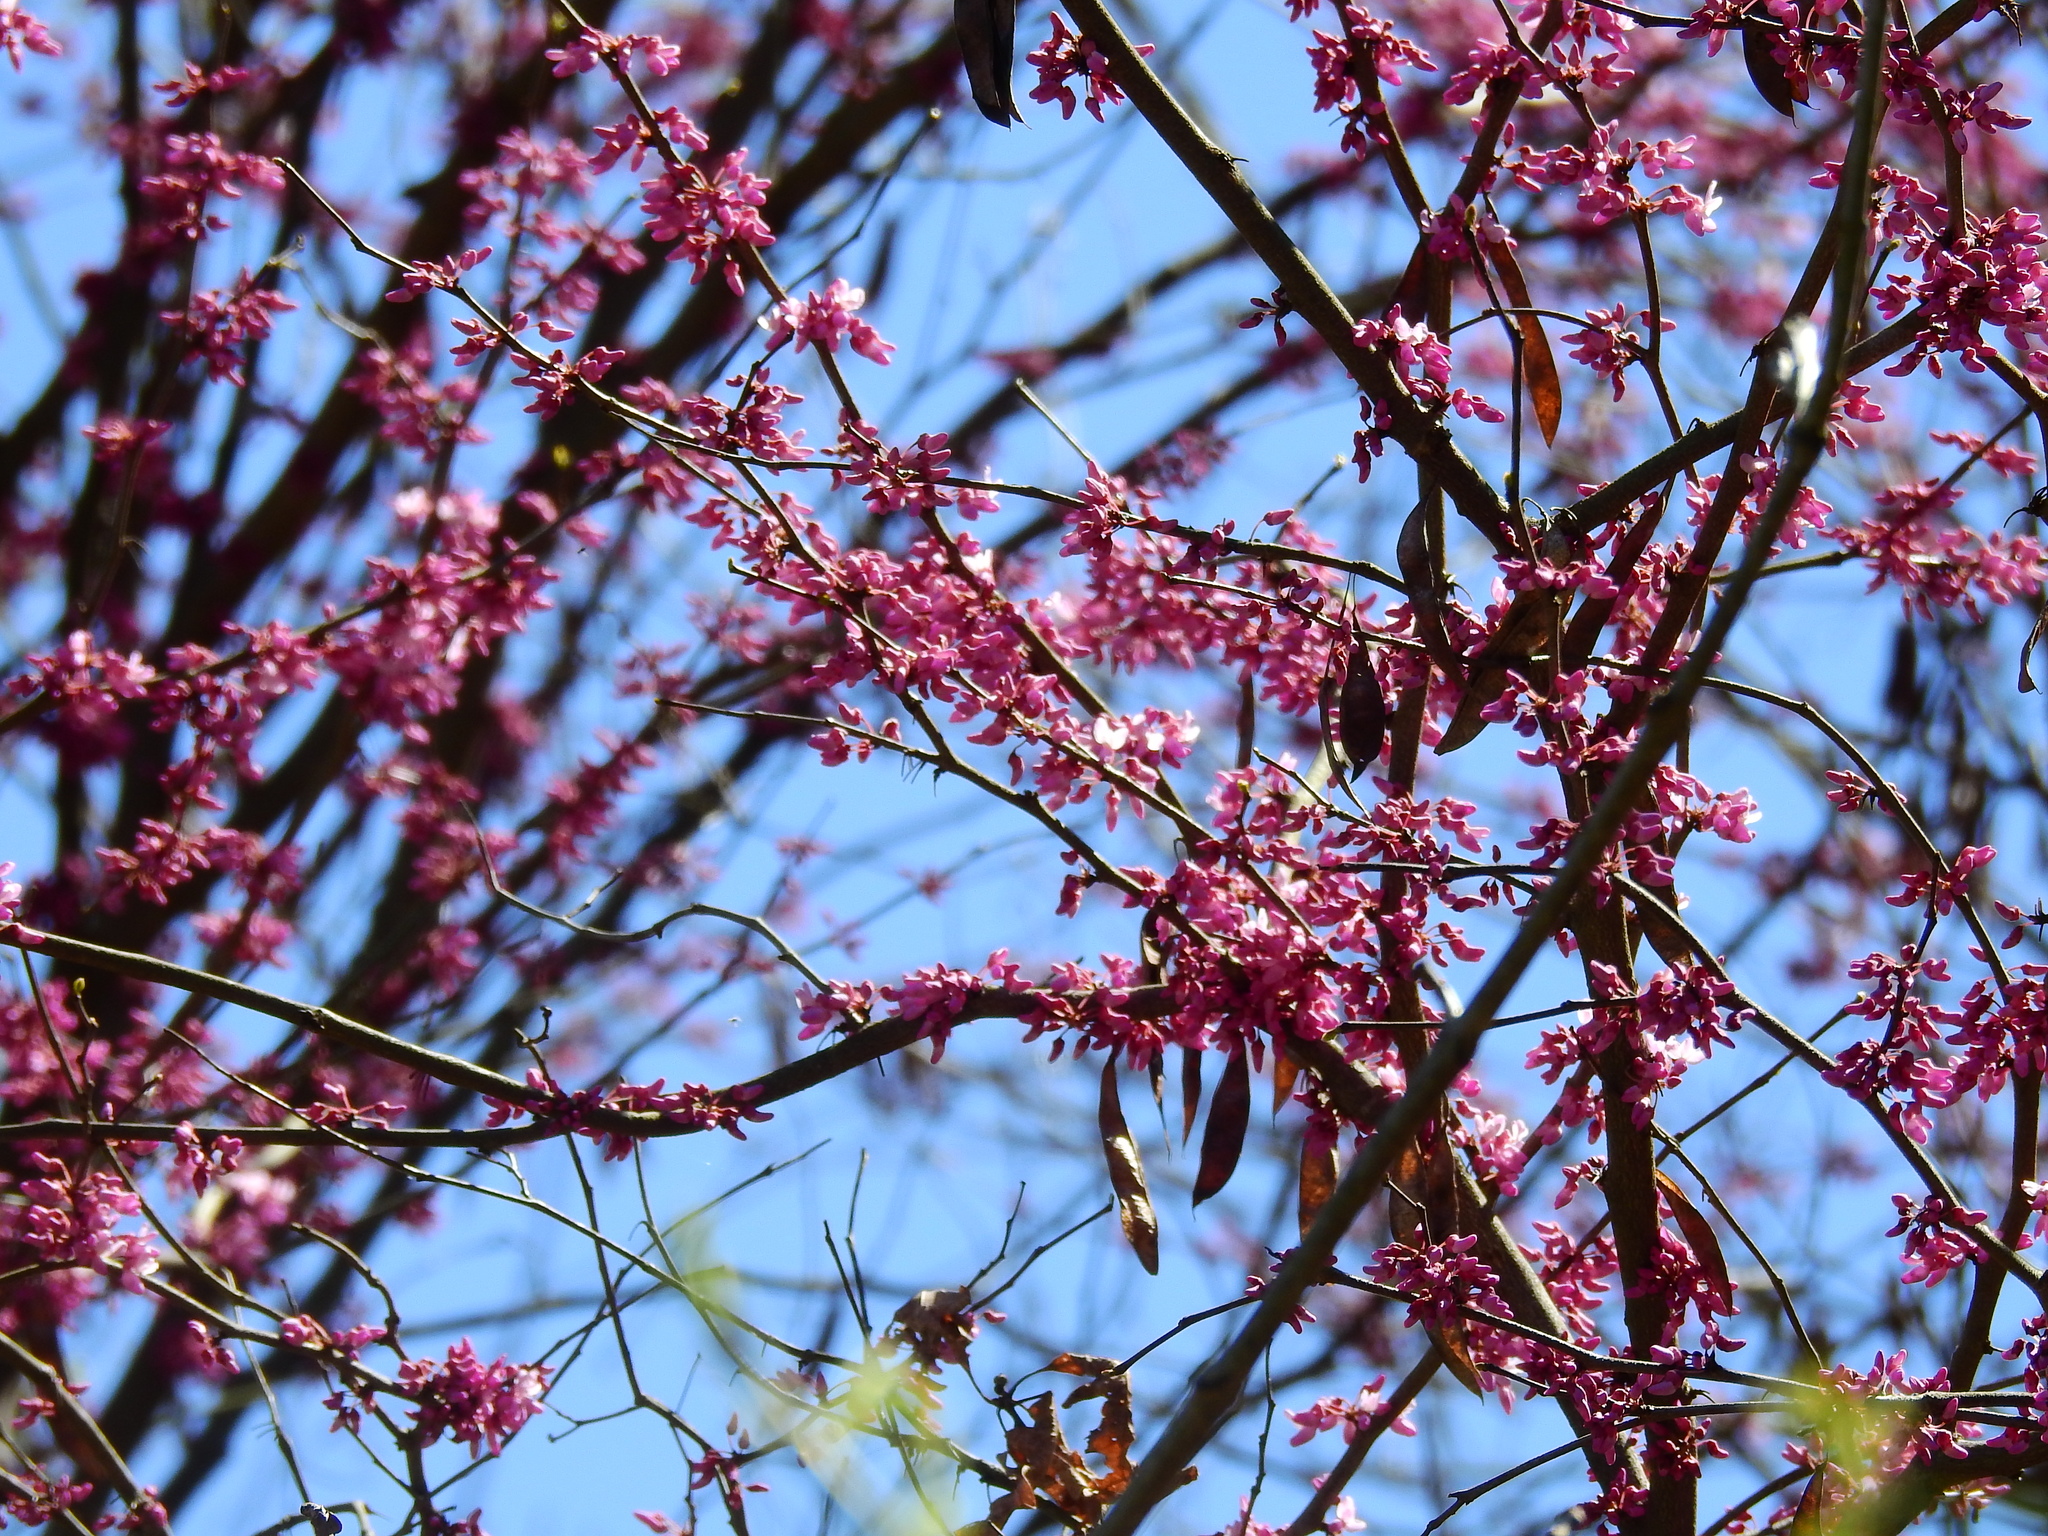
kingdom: Plantae
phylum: Tracheophyta
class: Magnoliopsida
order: Fabales
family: Fabaceae
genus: Cercis
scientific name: Cercis canadensis
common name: Eastern redbud
